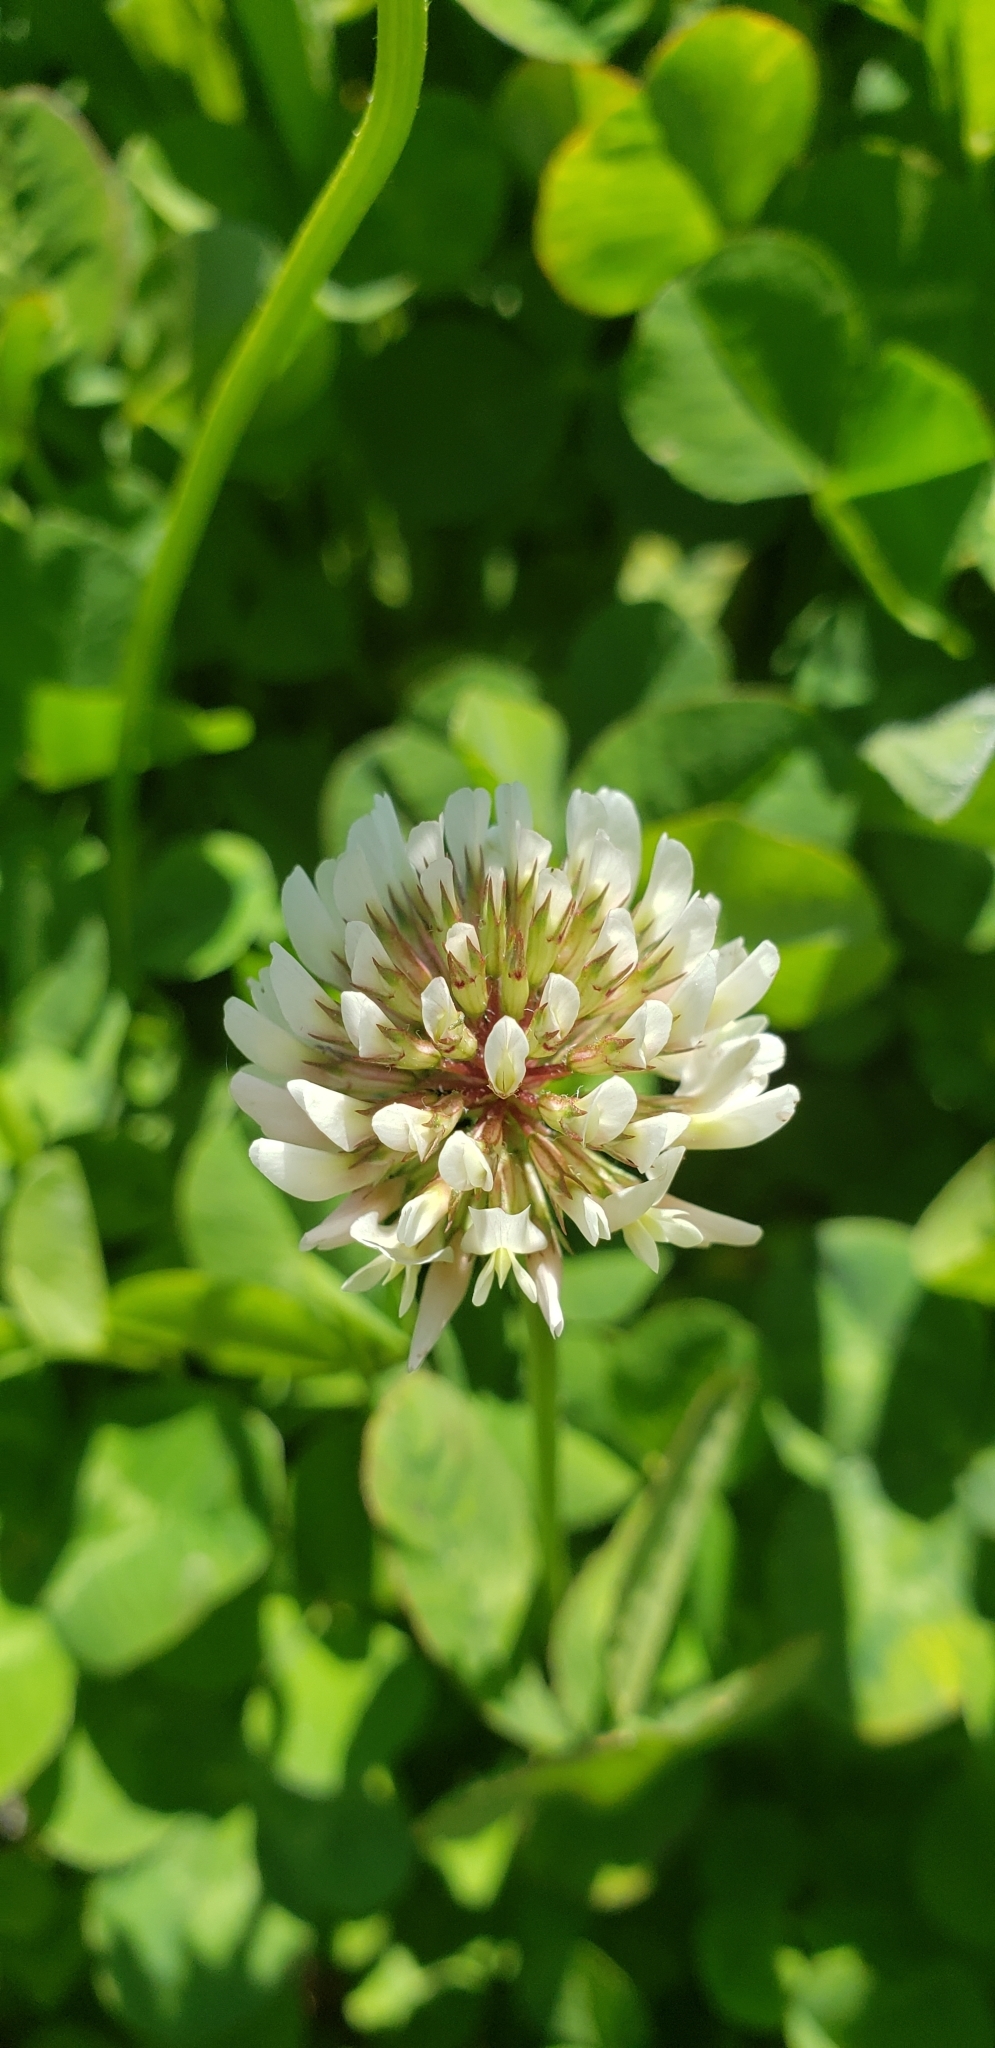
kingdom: Plantae
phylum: Tracheophyta
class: Magnoliopsida
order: Fabales
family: Fabaceae
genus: Trifolium
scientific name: Trifolium repens
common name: White clover
